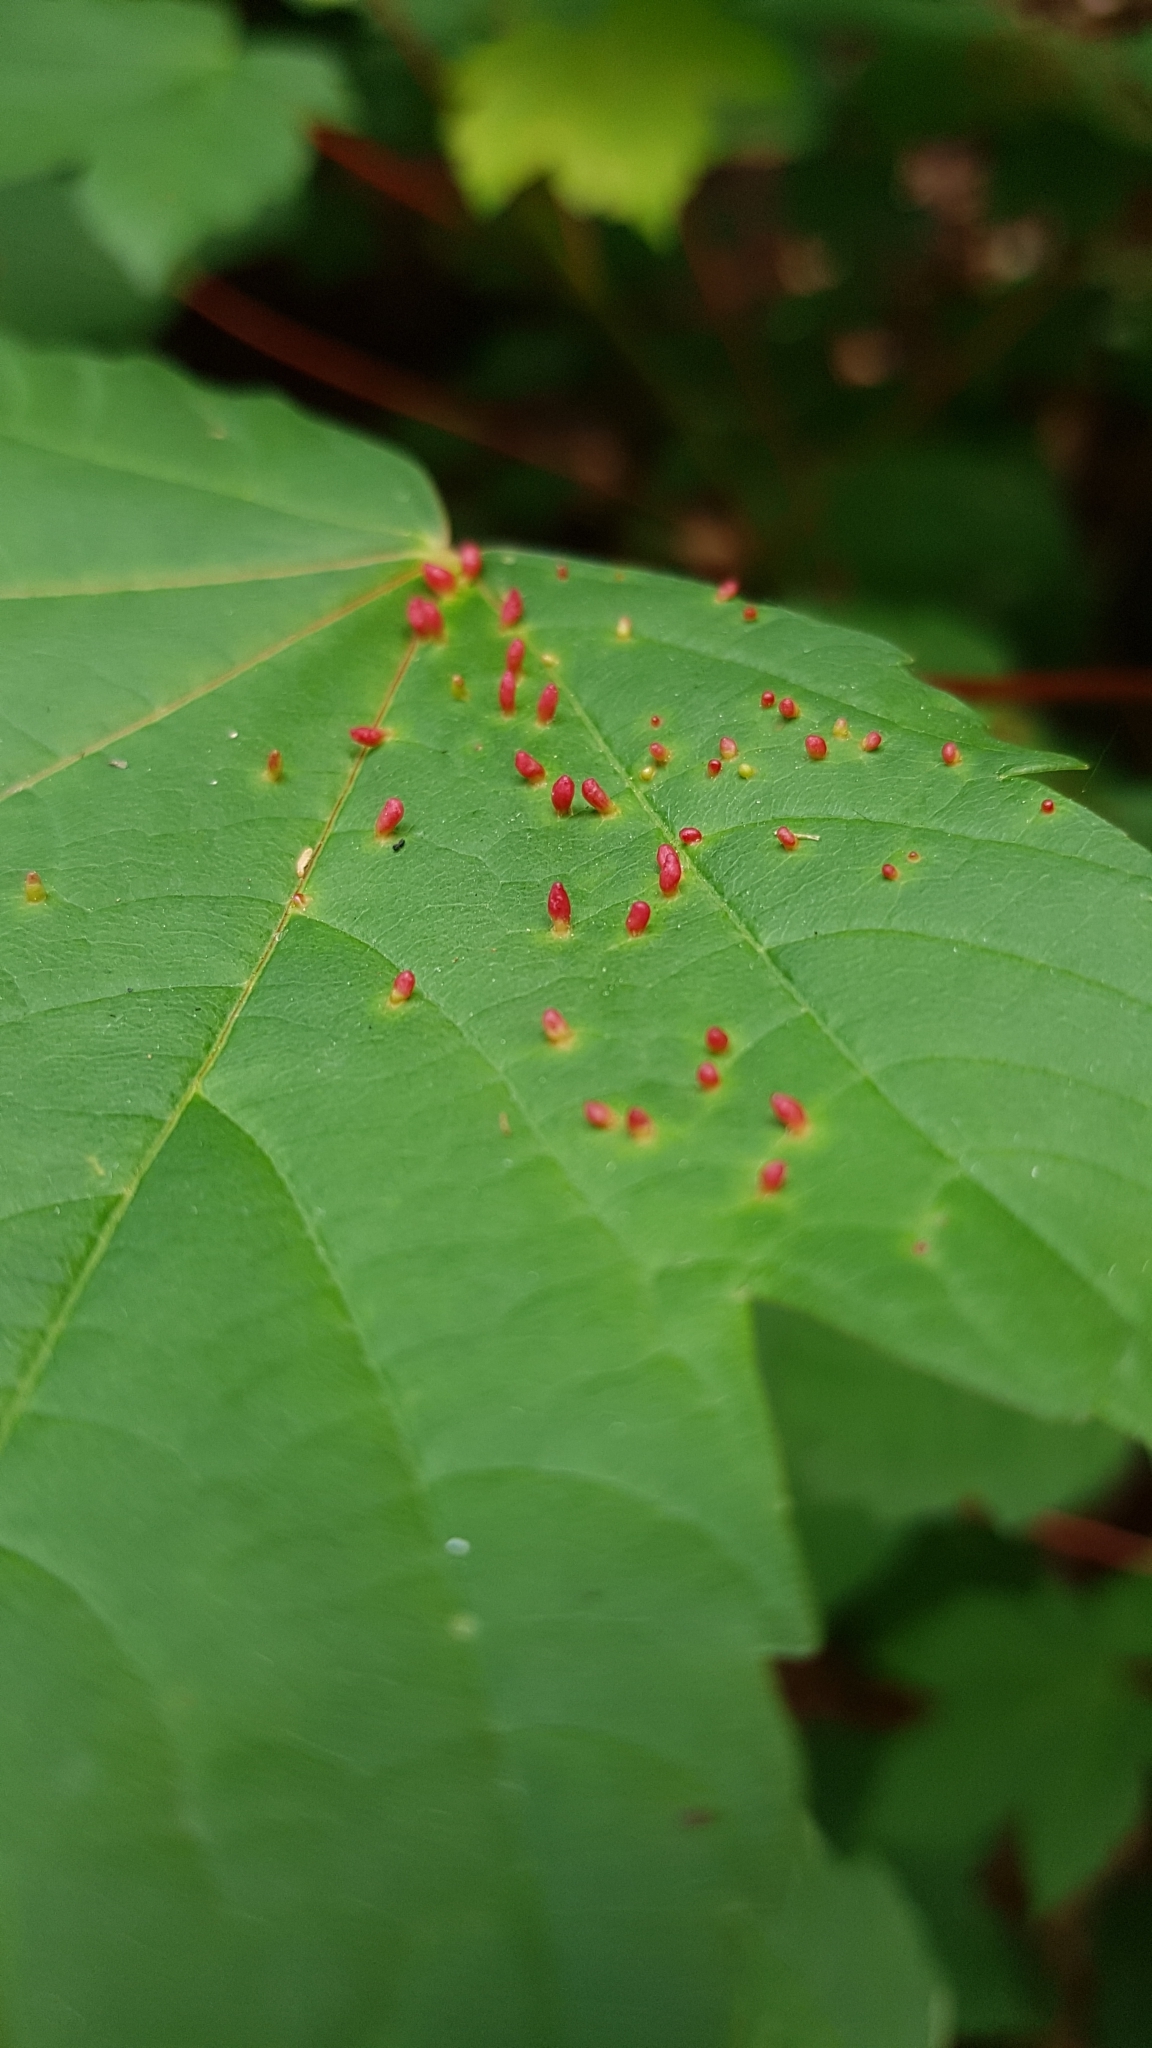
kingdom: Animalia
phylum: Arthropoda
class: Arachnida
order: Trombidiformes
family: Eriophyidae
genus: Aceria
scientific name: Aceria cephaloneus
